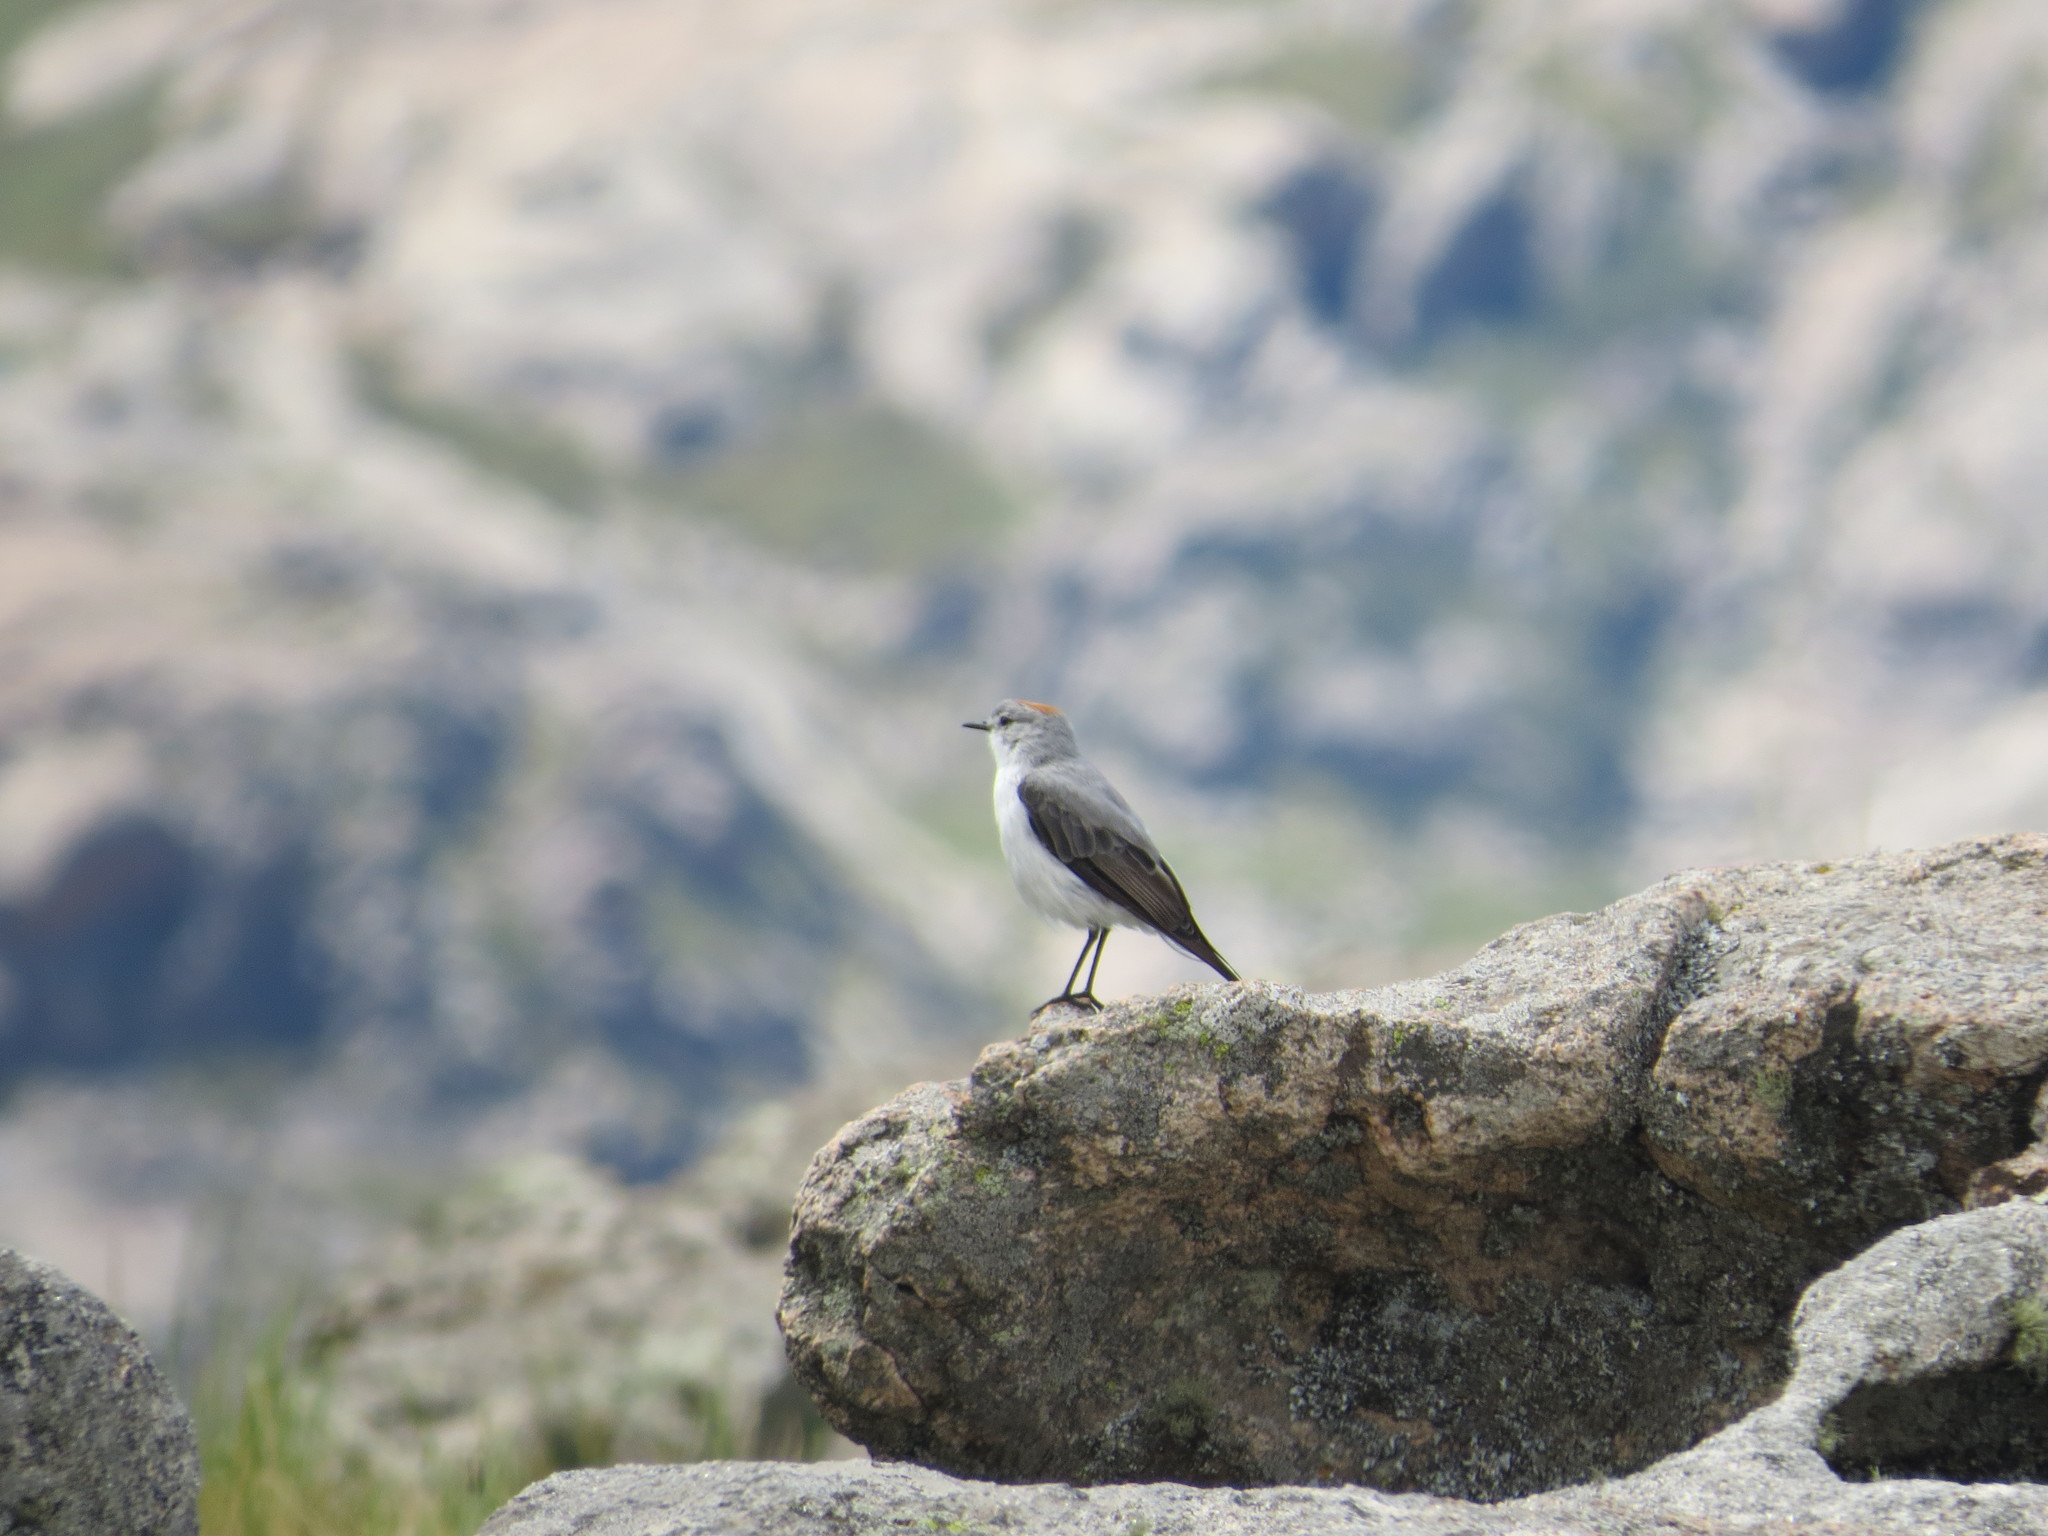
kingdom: Animalia
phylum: Chordata
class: Aves
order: Passeriformes
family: Tyrannidae
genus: Muscisaxicola
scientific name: Muscisaxicola rufivertex
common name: Rufous-naped ground tyrant
